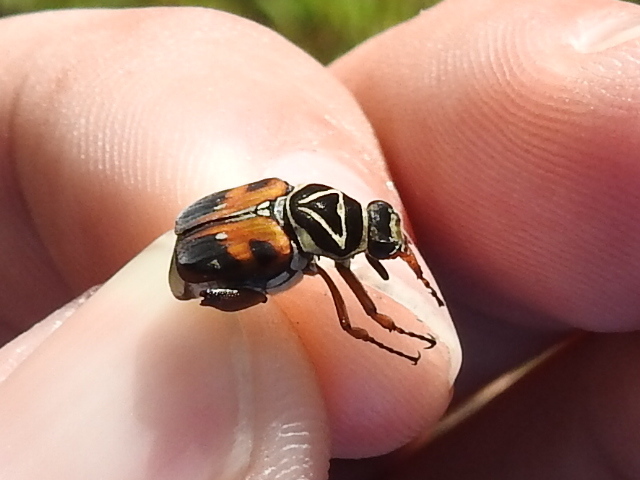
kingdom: Animalia
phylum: Arthropoda
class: Insecta
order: Coleoptera
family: Scarabaeidae
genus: Trigonopeltastes
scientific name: Trigonopeltastes delta
